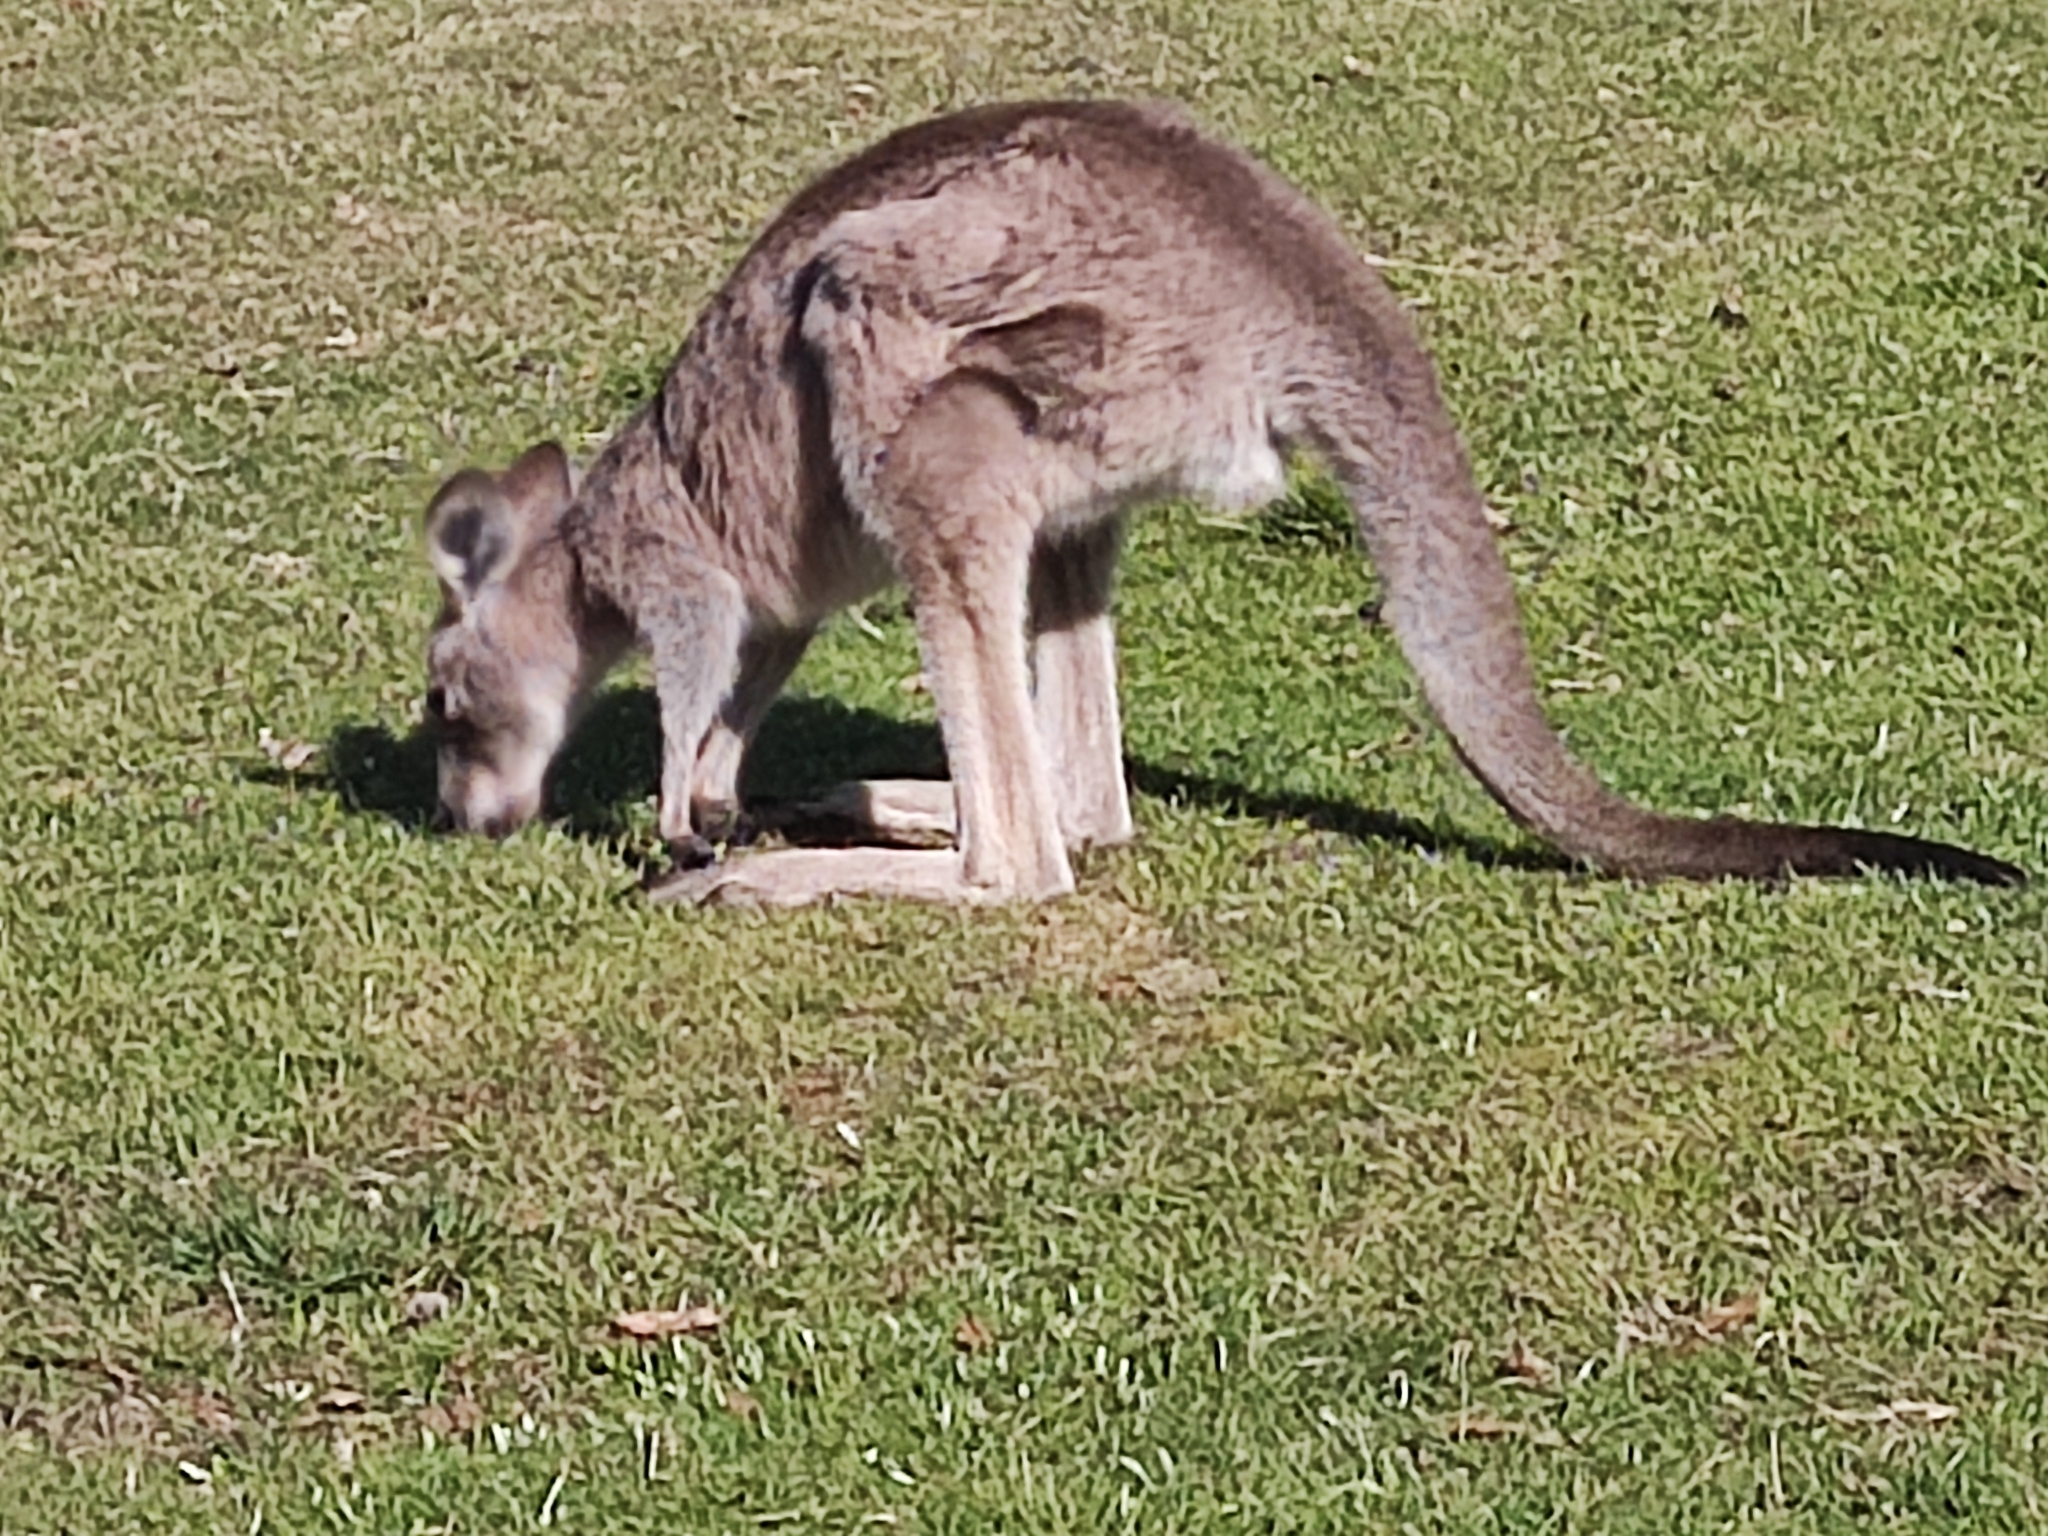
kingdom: Animalia
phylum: Chordata
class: Mammalia
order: Diprotodontia
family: Macropodidae
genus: Macropus
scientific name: Macropus giganteus
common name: Eastern grey kangaroo
